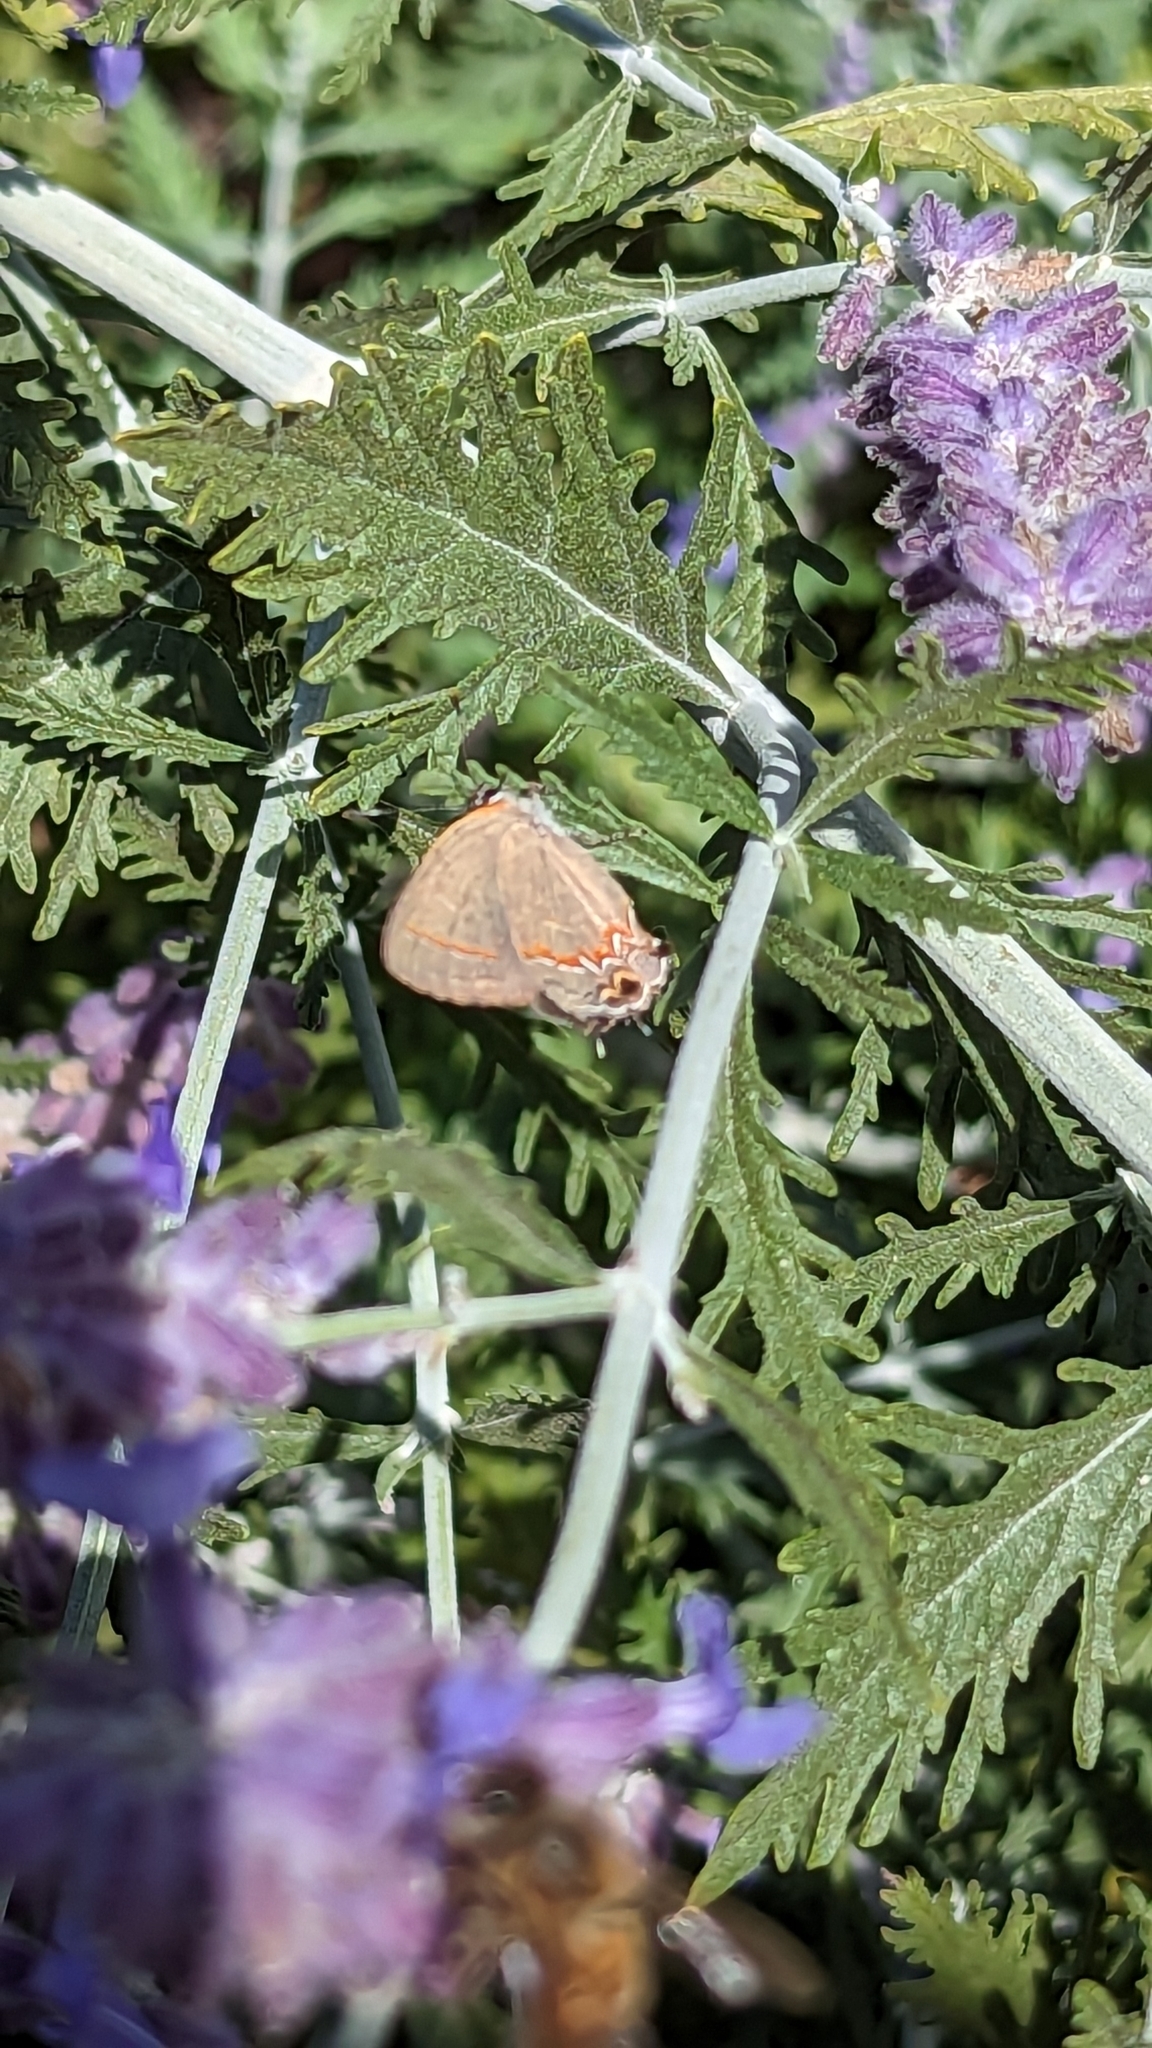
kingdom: Animalia
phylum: Arthropoda
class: Insecta
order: Lepidoptera
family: Lycaenidae
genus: Calycopis
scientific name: Calycopis cecrops
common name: Red-banded hairstreak
